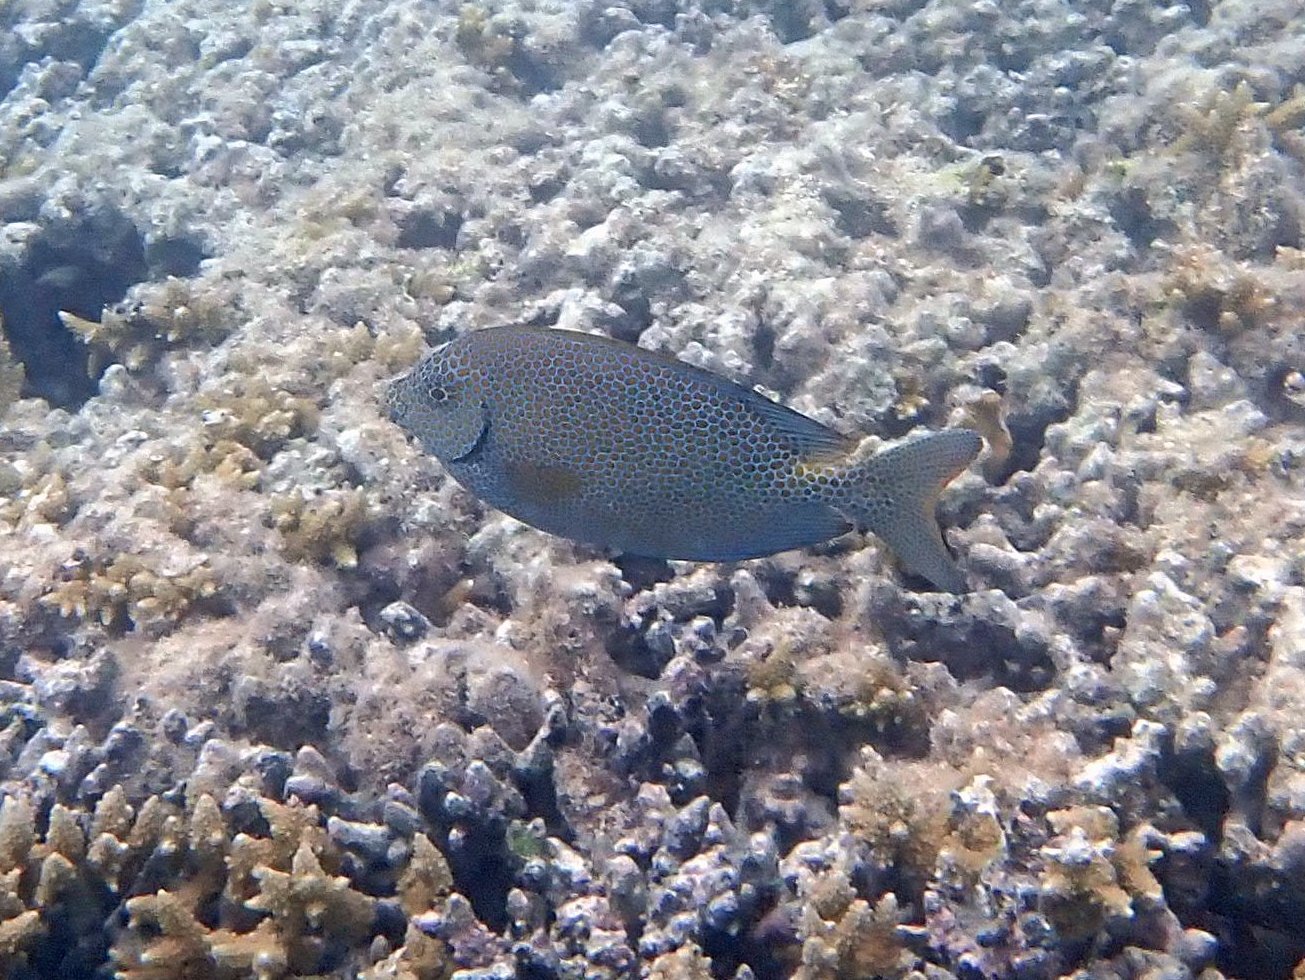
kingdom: Animalia
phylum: Chordata
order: Perciformes
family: Siganidae
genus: Siganus
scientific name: Siganus punctatus
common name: Gold-spotted rabbitfish
